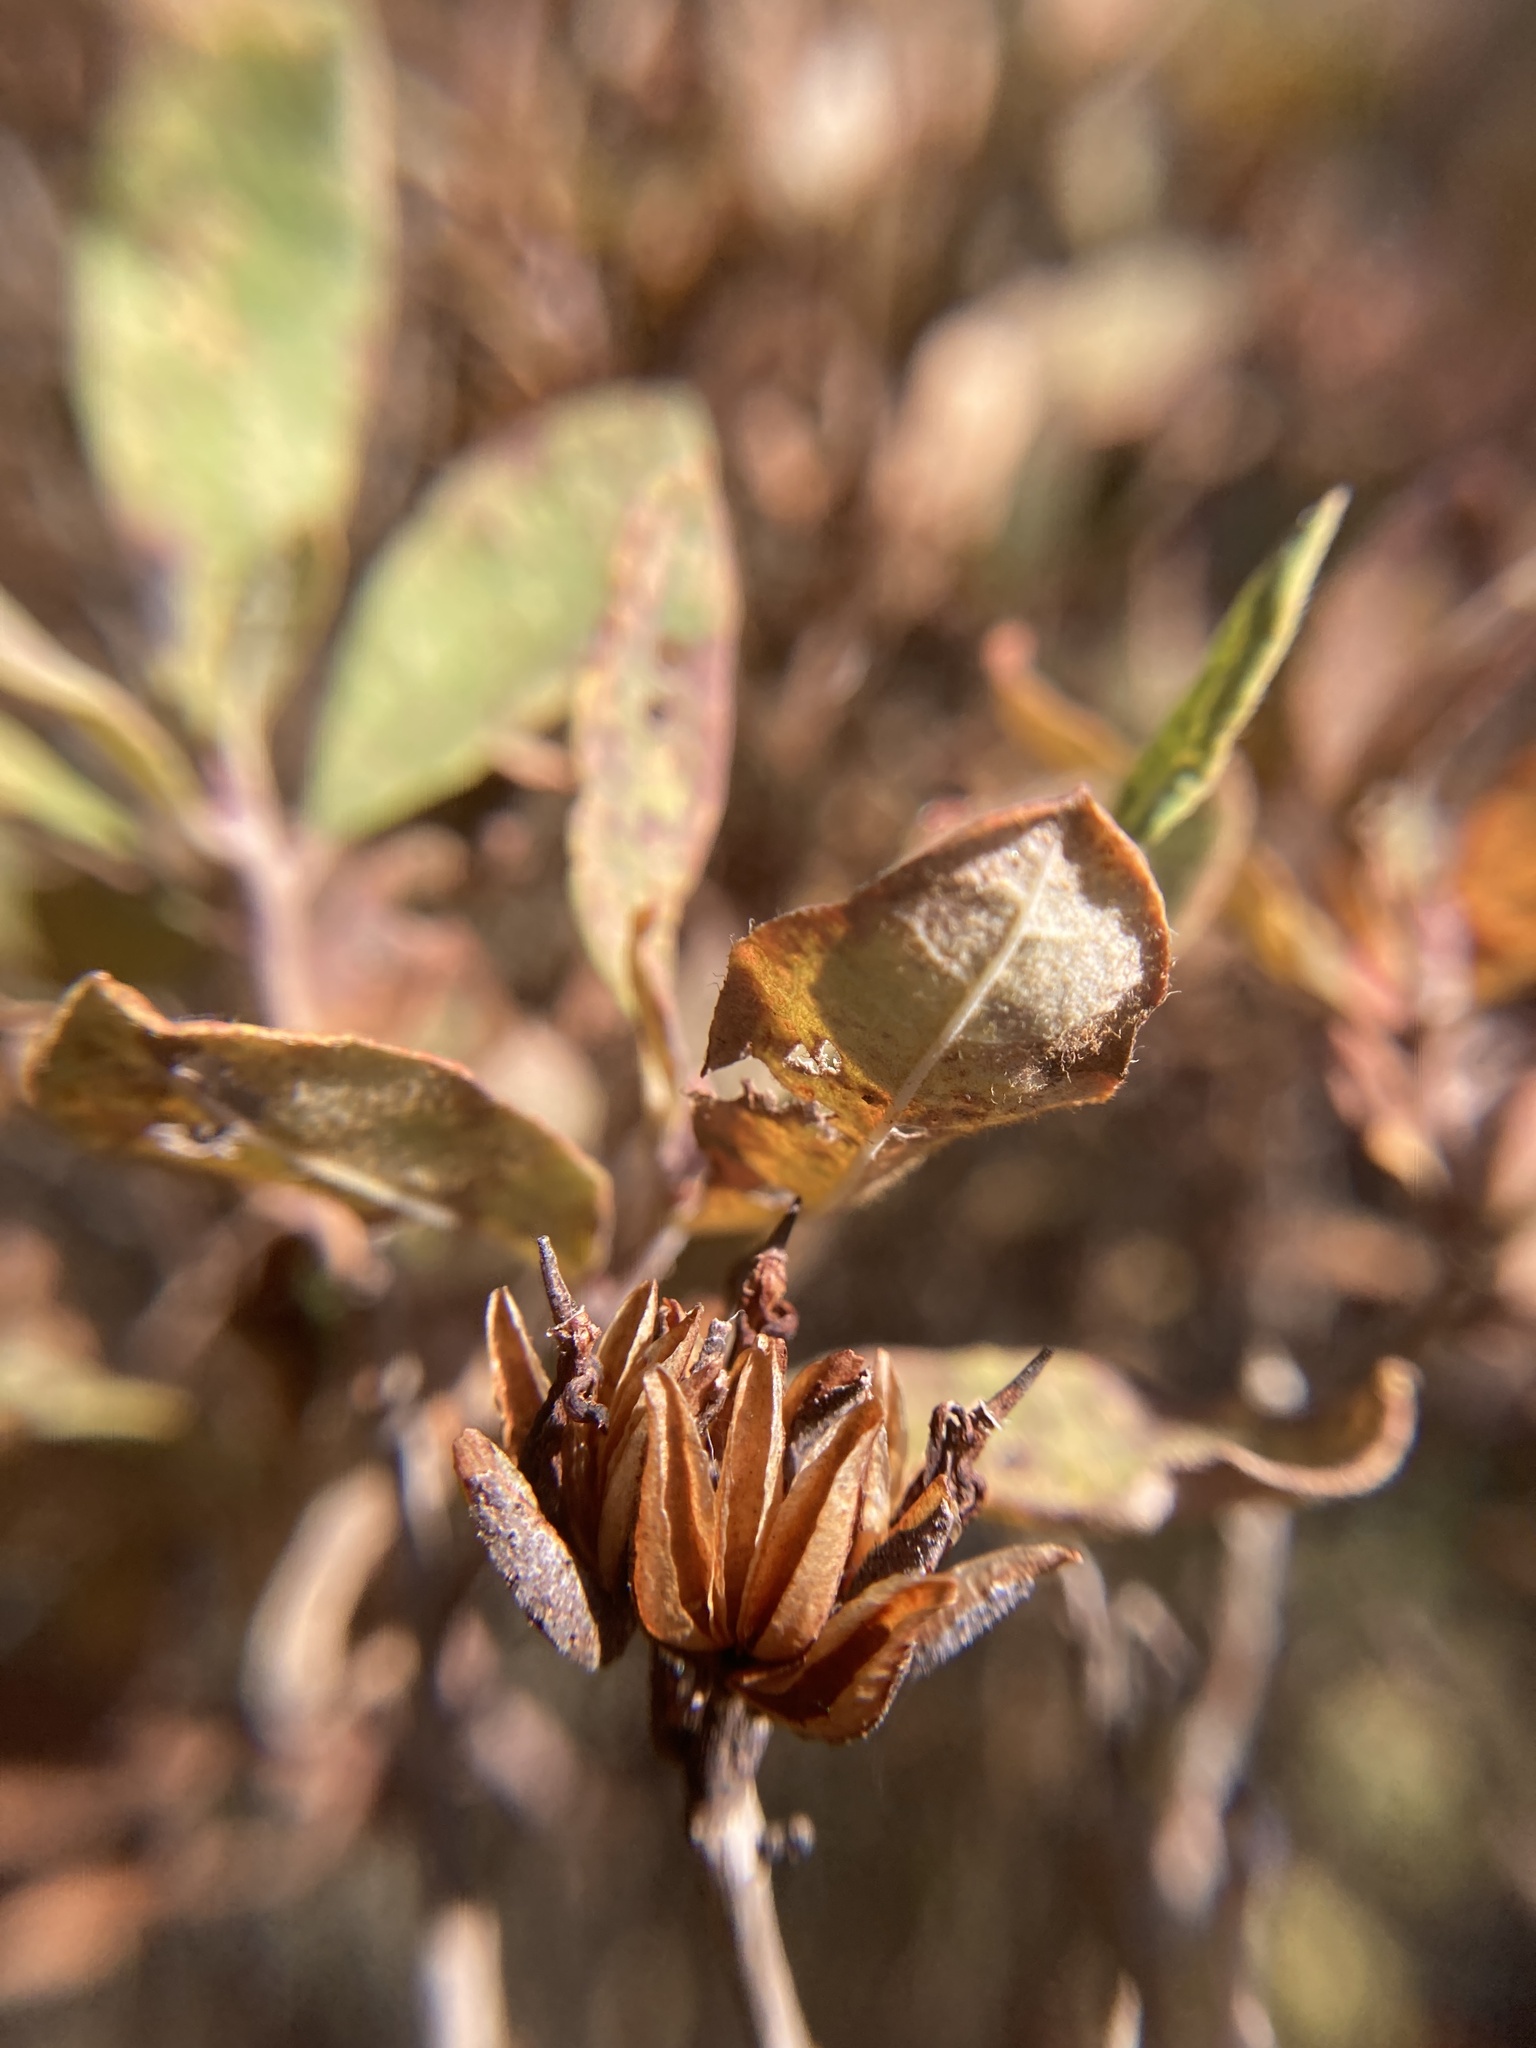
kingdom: Plantae
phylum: Tracheophyta
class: Magnoliopsida
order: Ericales
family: Ericaceae
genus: Rhododendron
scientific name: Rhododendron canadense
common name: Rhodora
